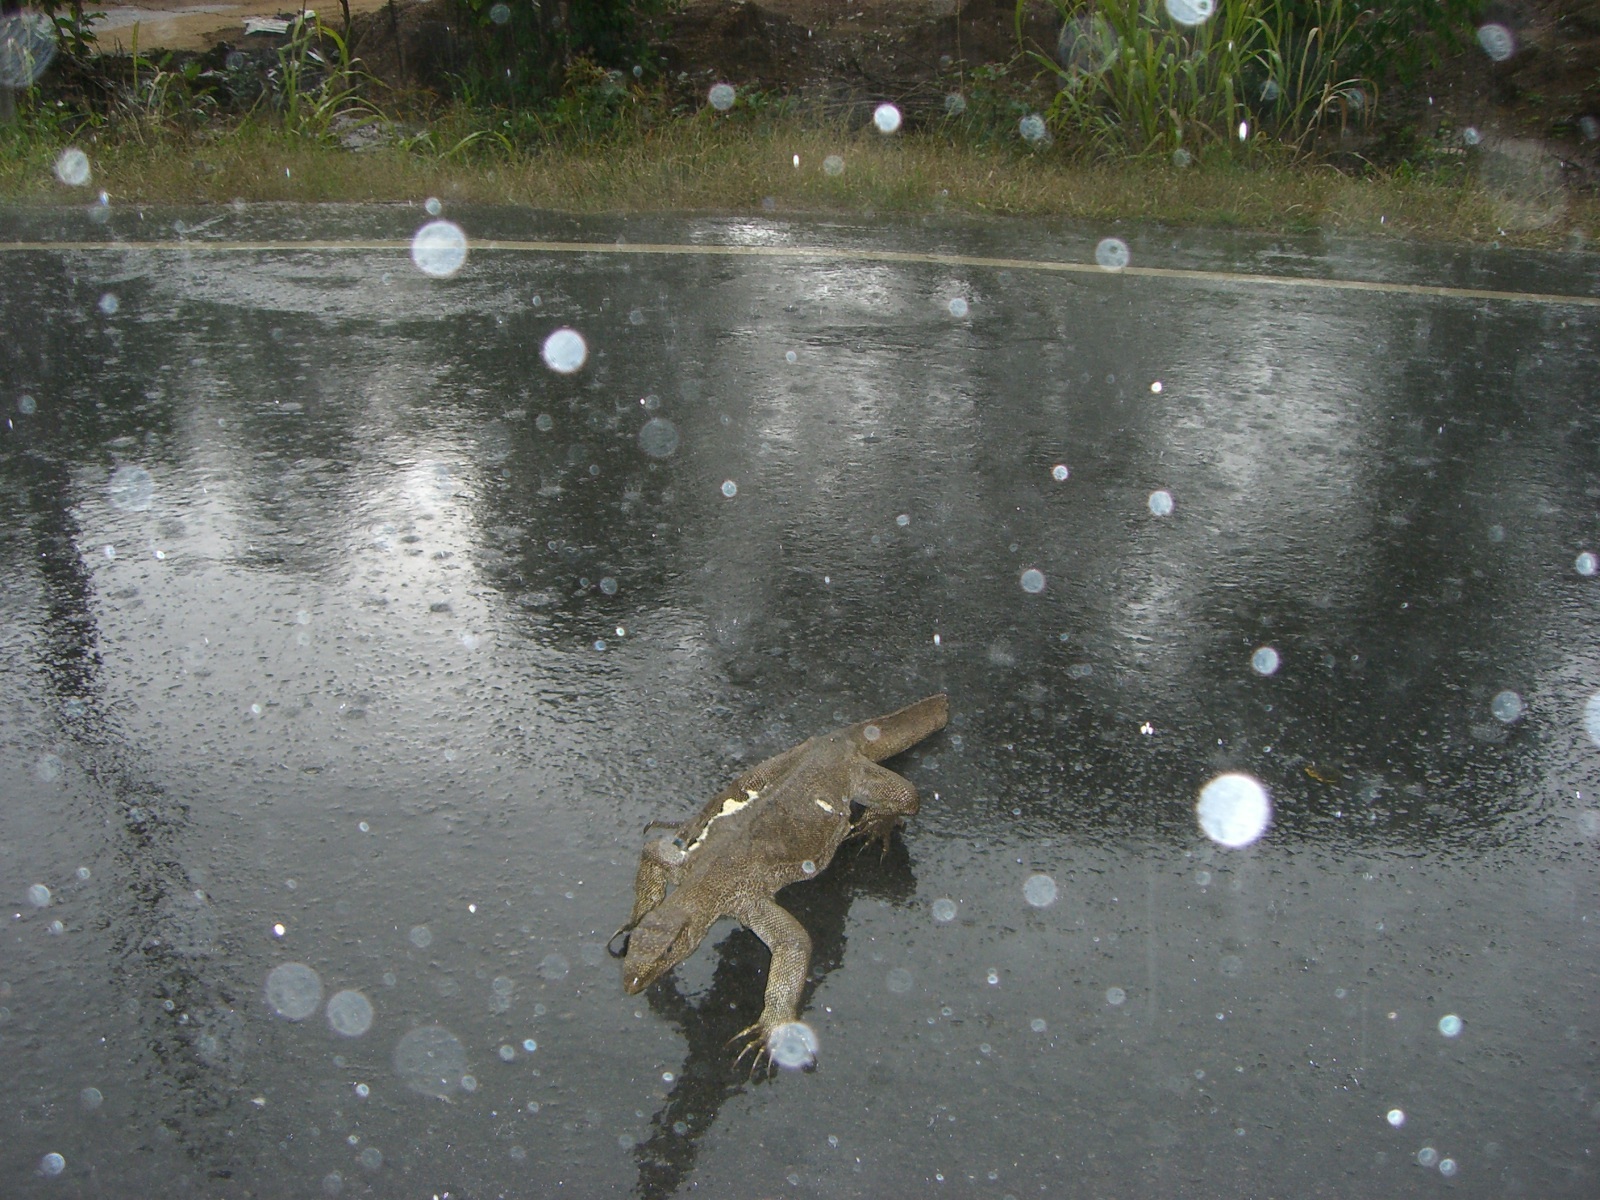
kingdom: Animalia
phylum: Chordata
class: Squamata
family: Varanidae
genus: Varanus
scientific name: Varanus bengalensis
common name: Bengal monitor
